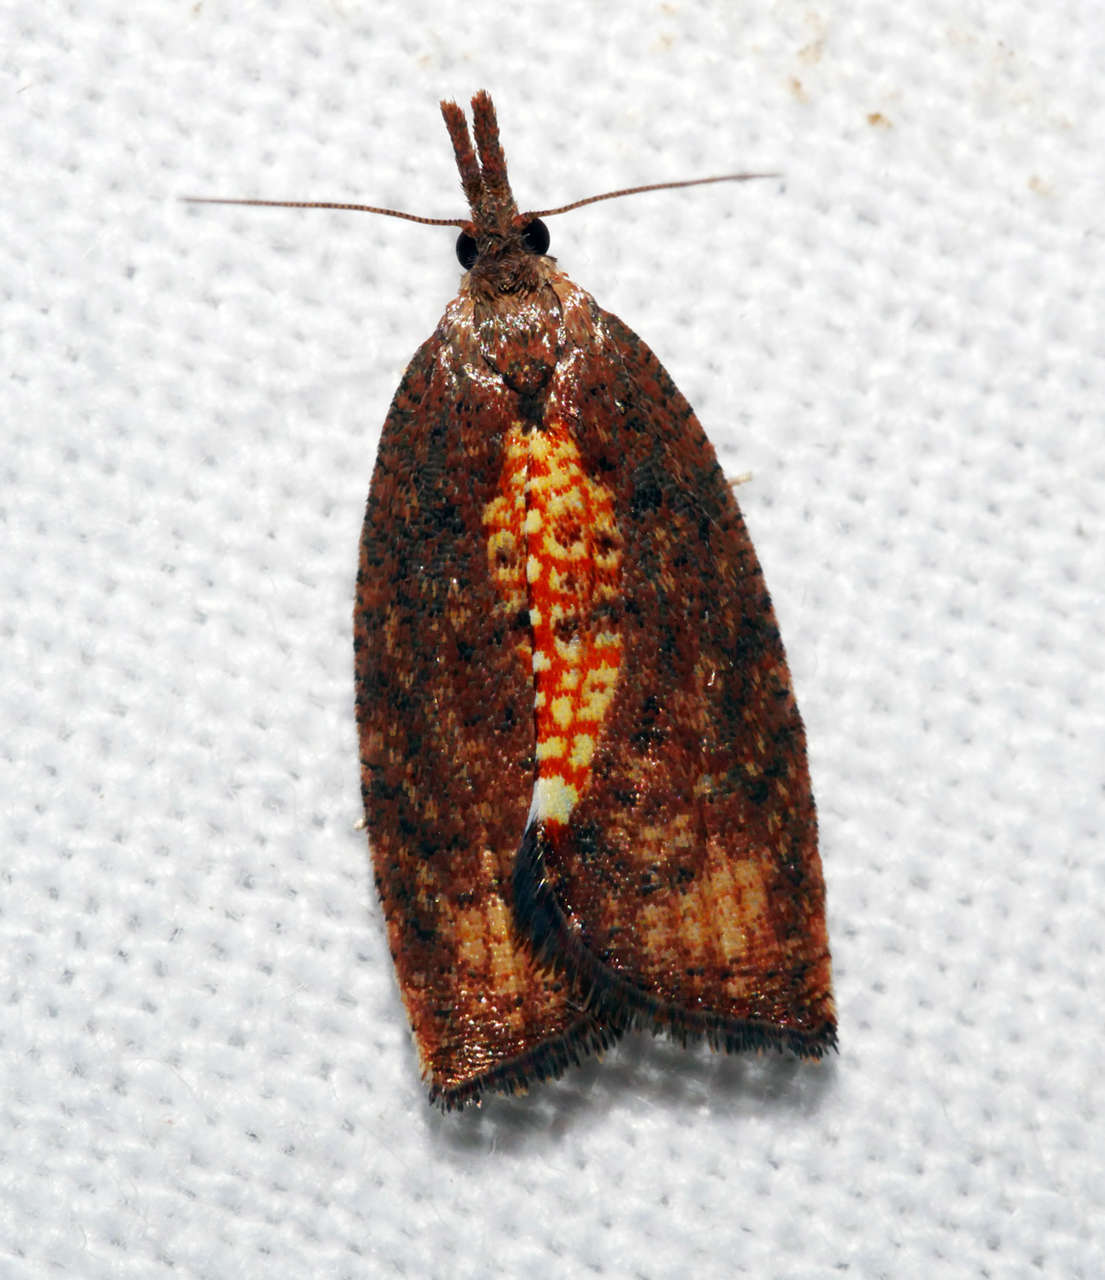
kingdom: Animalia
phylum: Arthropoda
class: Insecta
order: Lepidoptera
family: Tortricidae
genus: Capua
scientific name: Capua leucostacta
